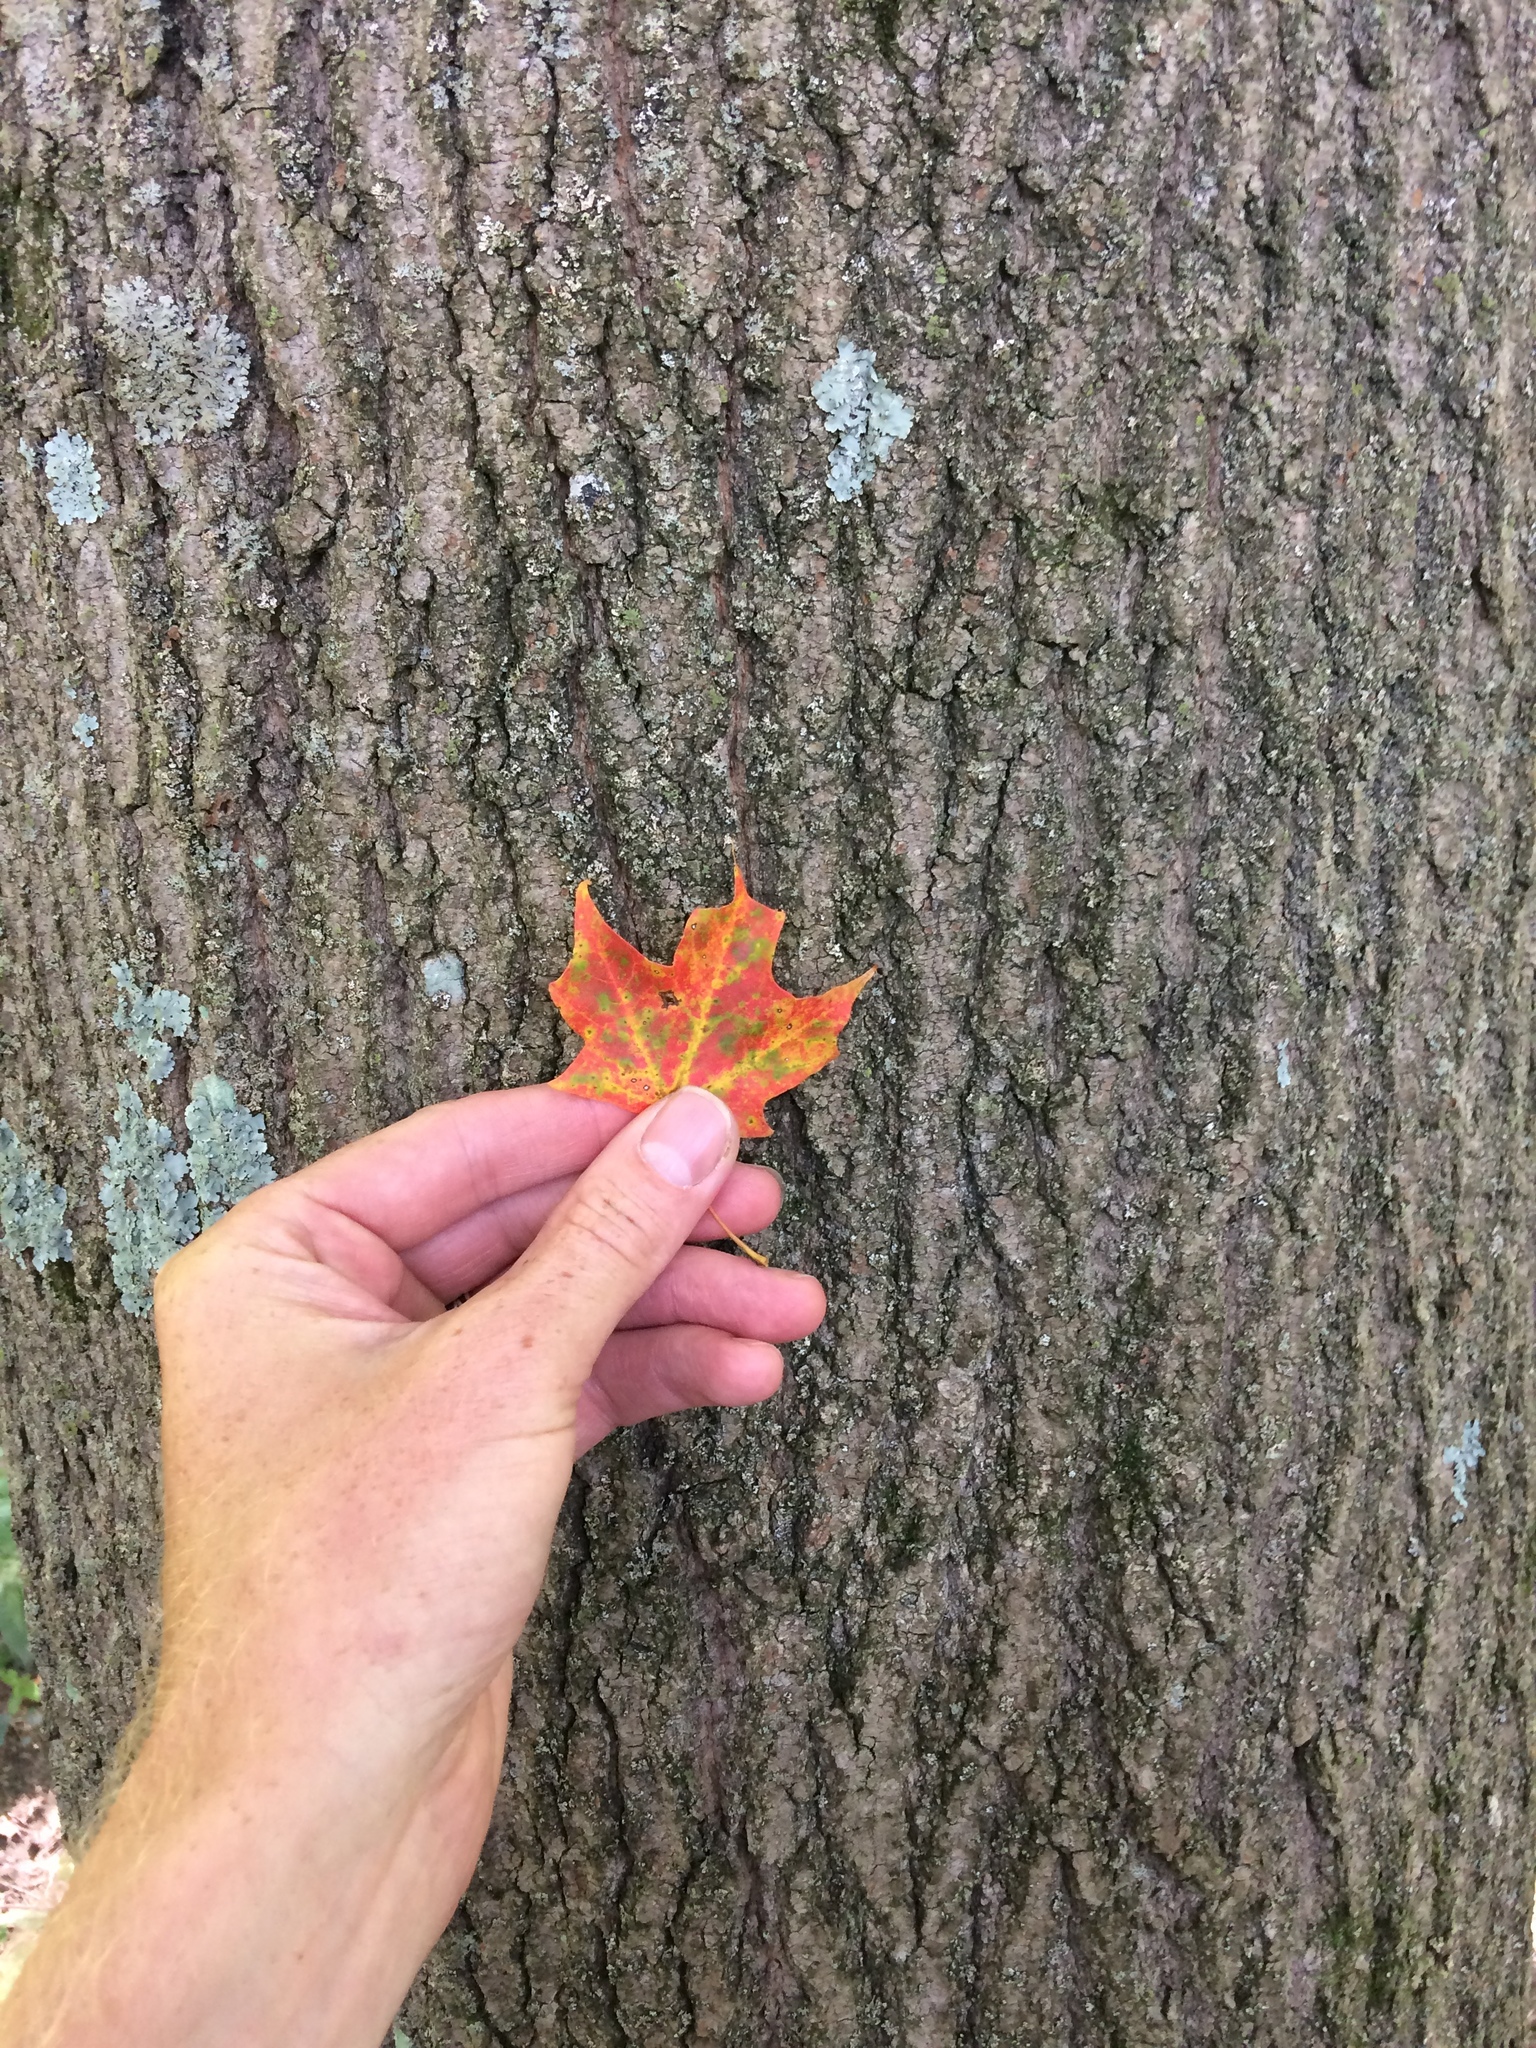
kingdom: Plantae
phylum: Tracheophyta
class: Magnoliopsida
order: Sapindales
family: Sapindaceae
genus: Acer
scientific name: Acer saccharum
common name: Sugar maple
